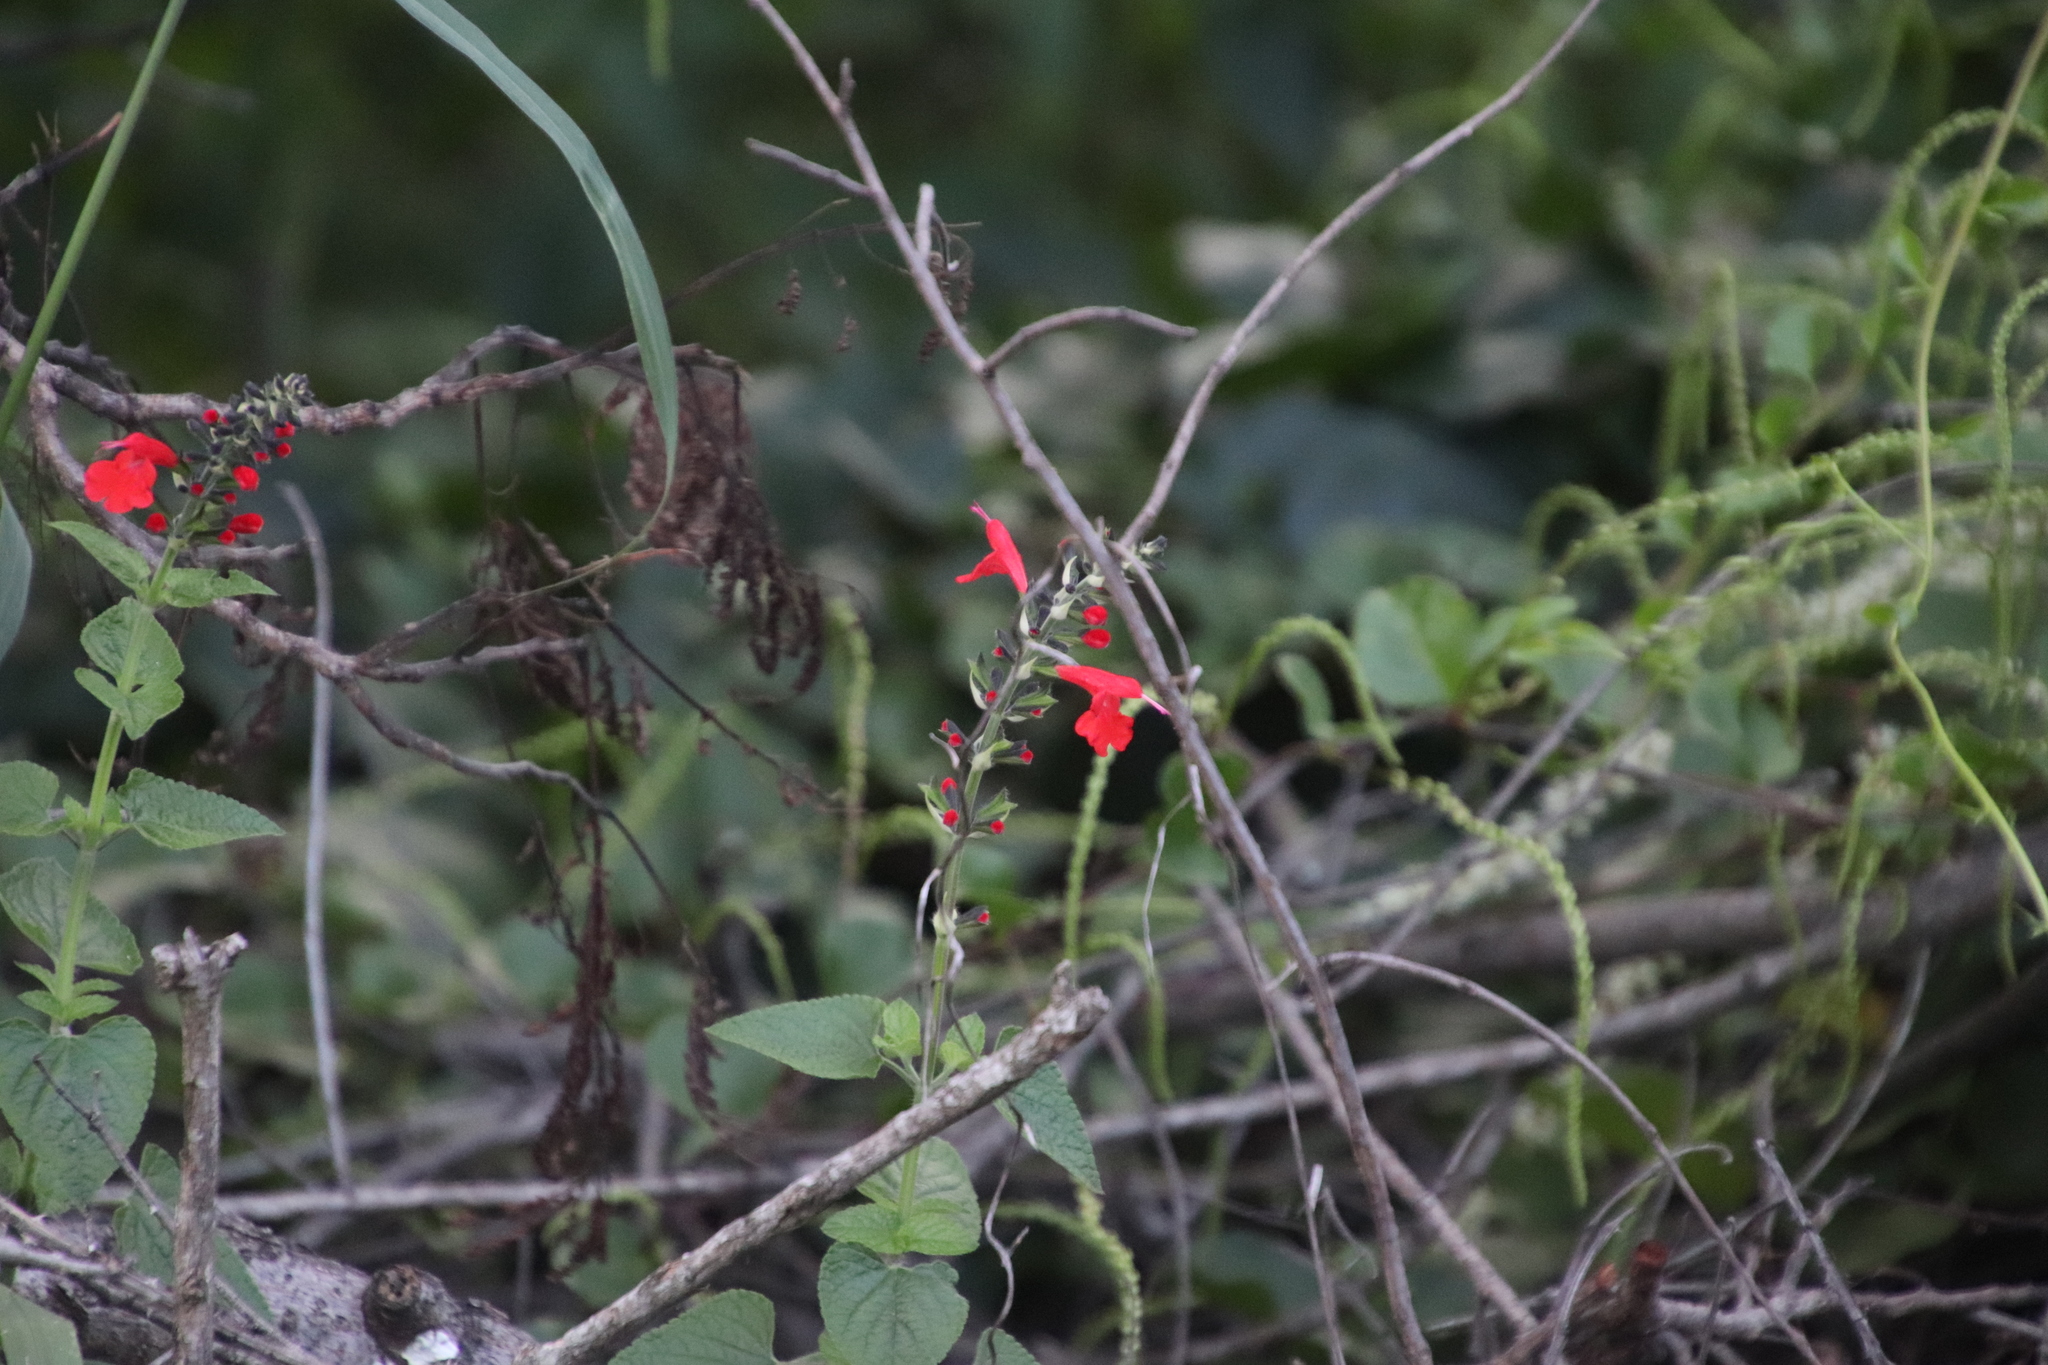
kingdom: Plantae
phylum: Tracheophyta
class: Magnoliopsida
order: Lamiales
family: Lamiaceae
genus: Salvia
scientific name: Salvia coccinea
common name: Blood sage
